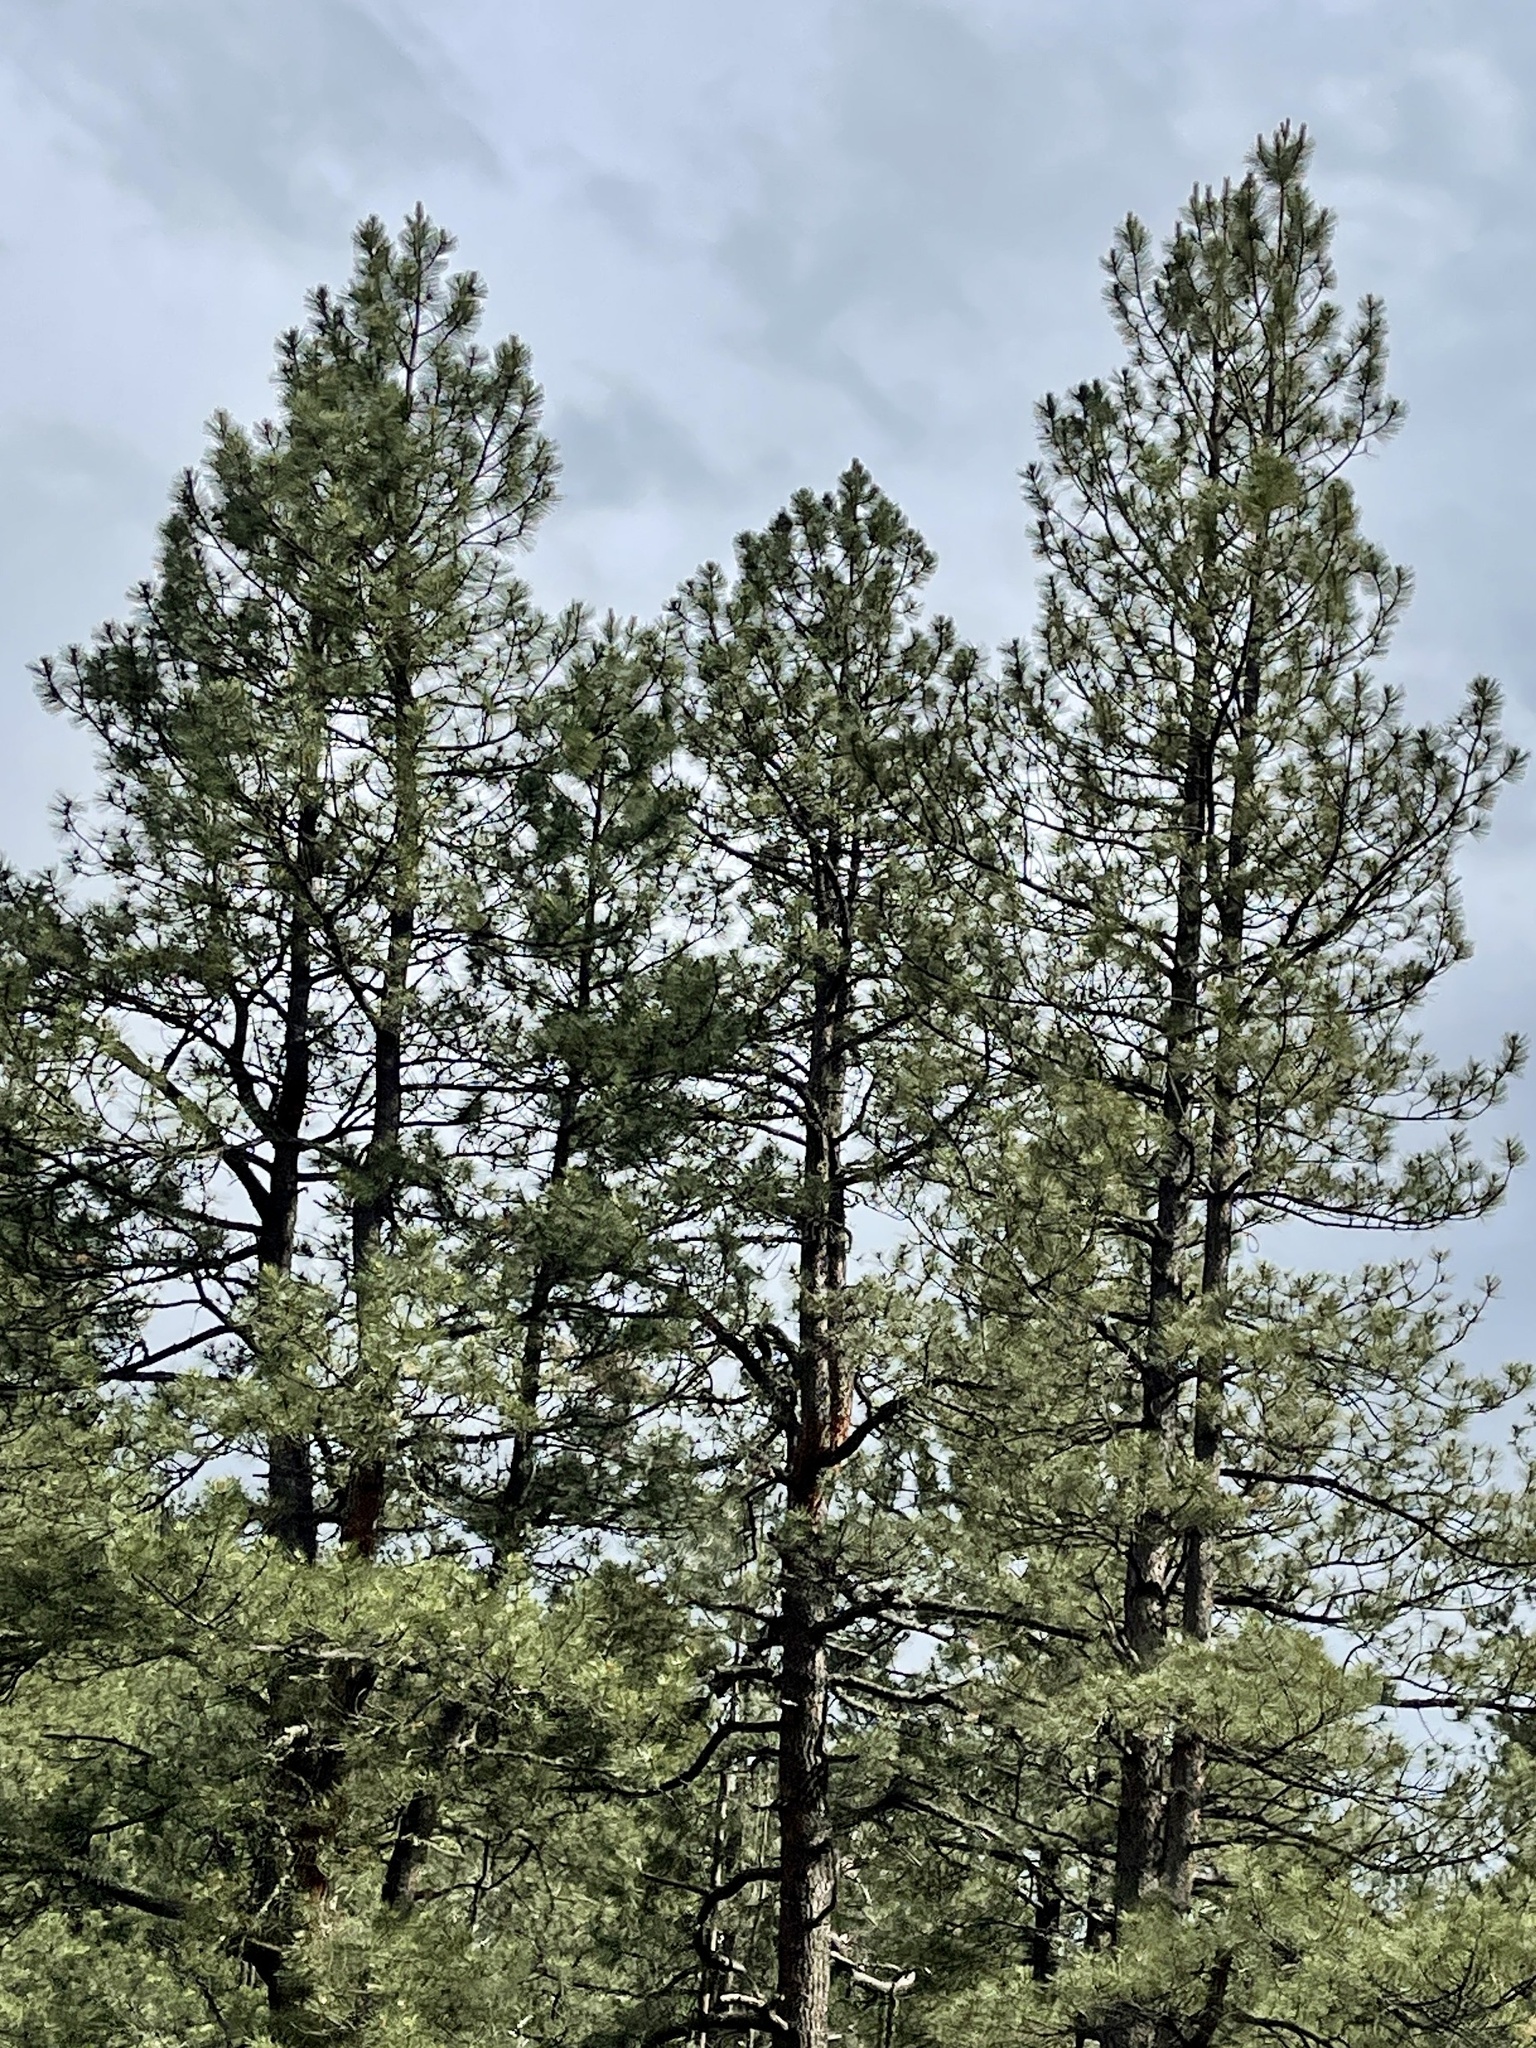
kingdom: Plantae
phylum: Tracheophyta
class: Pinopsida
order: Pinales
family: Pinaceae
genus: Pinus
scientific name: Pinus ponderosa
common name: Western yellow-pine
